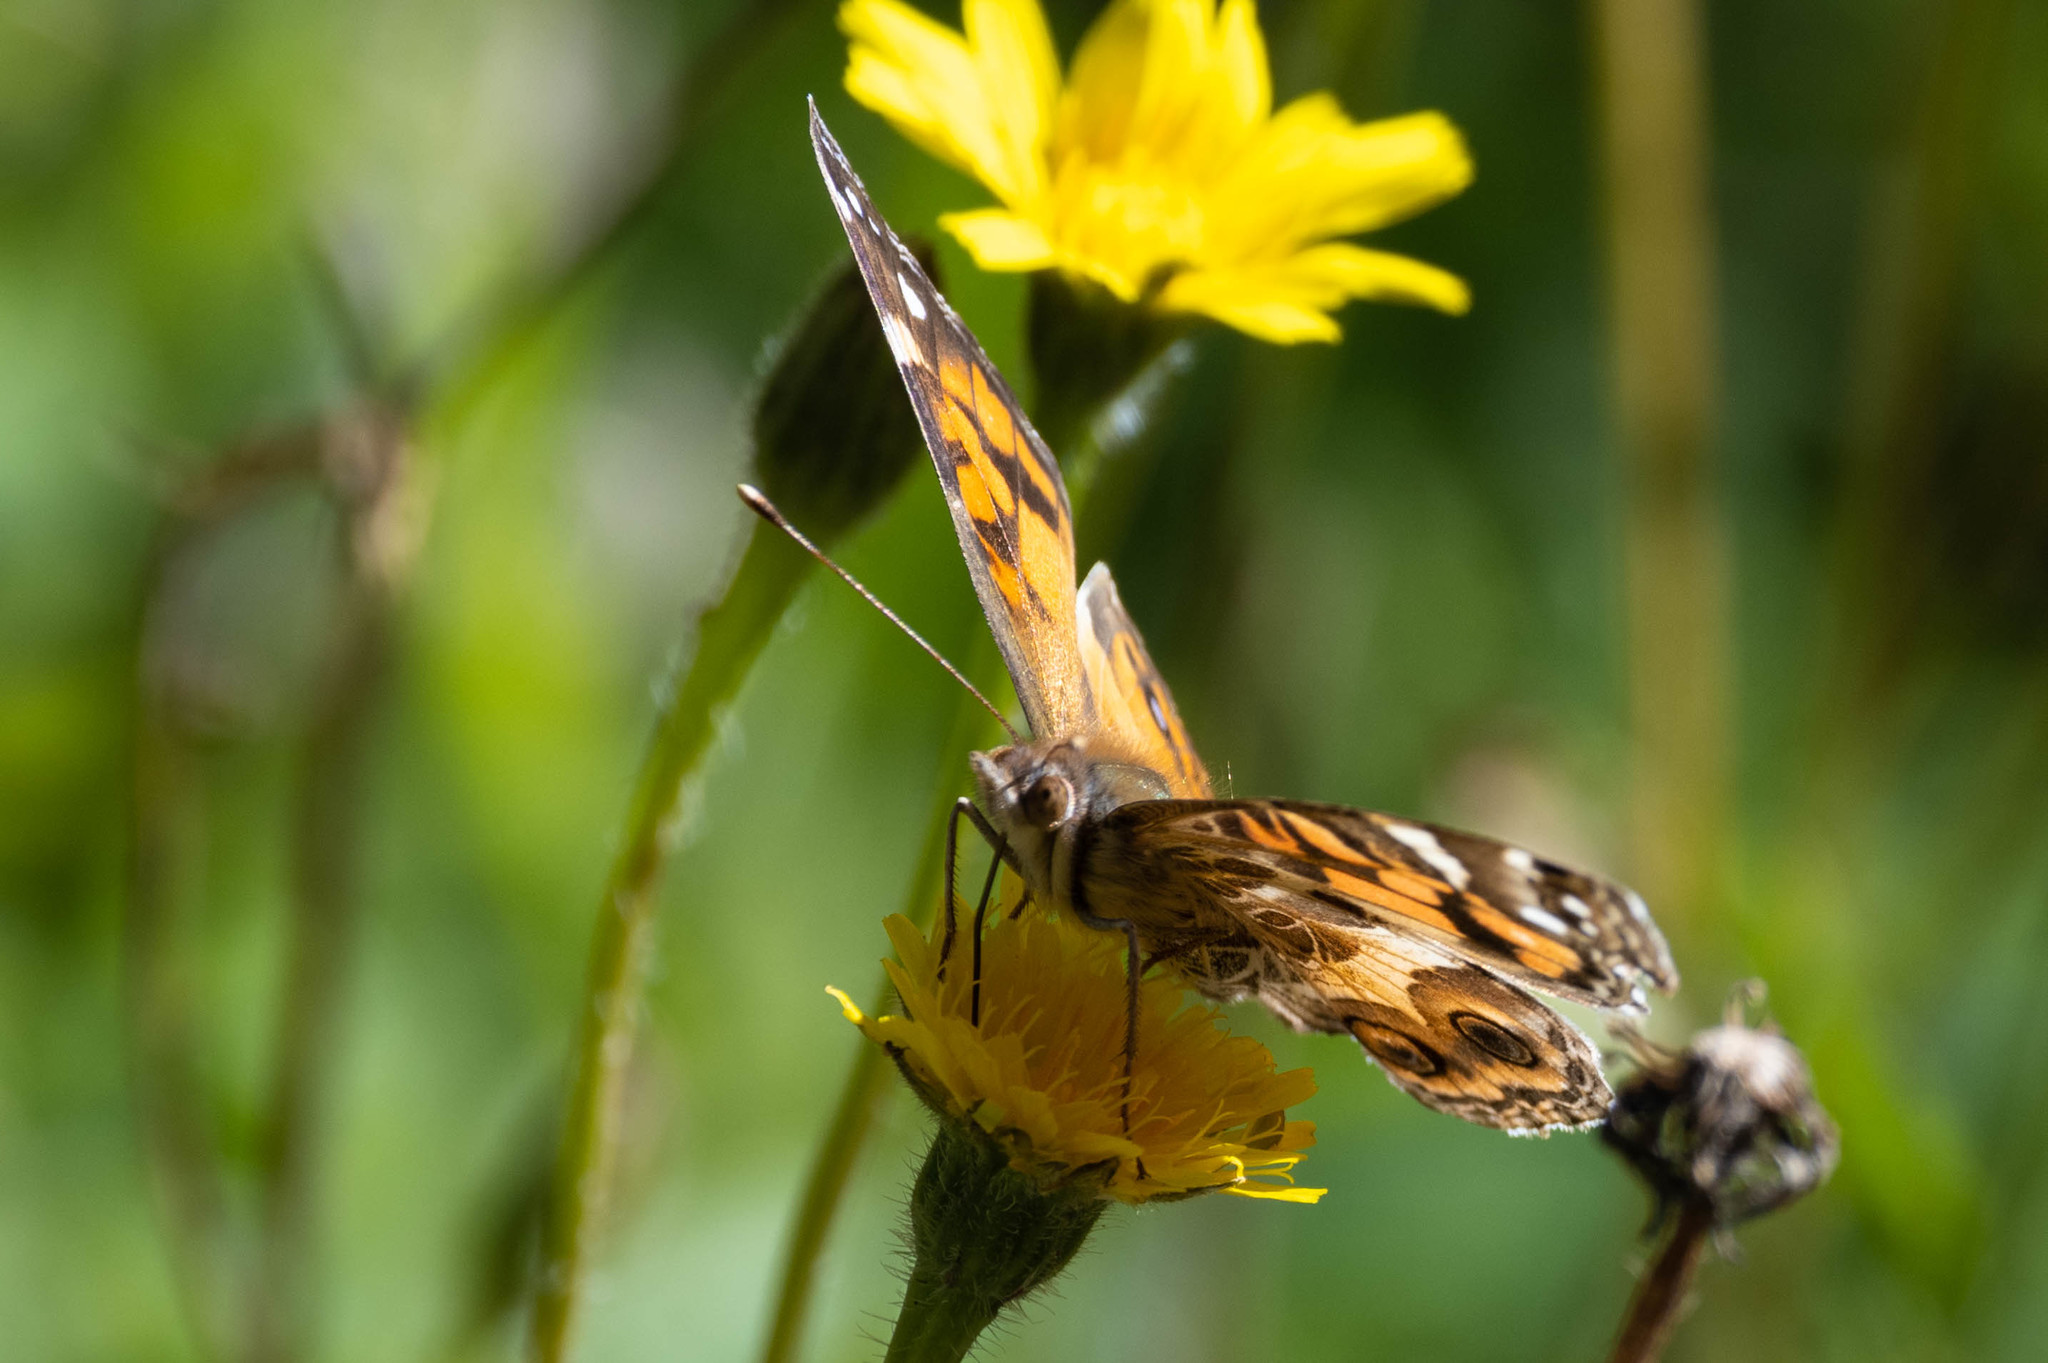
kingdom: Animalia
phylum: Arthropoda
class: Insecta
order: Lepidoptera
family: Nymphalidae
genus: Vanessa
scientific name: Vanessa virginiensis
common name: American lady
